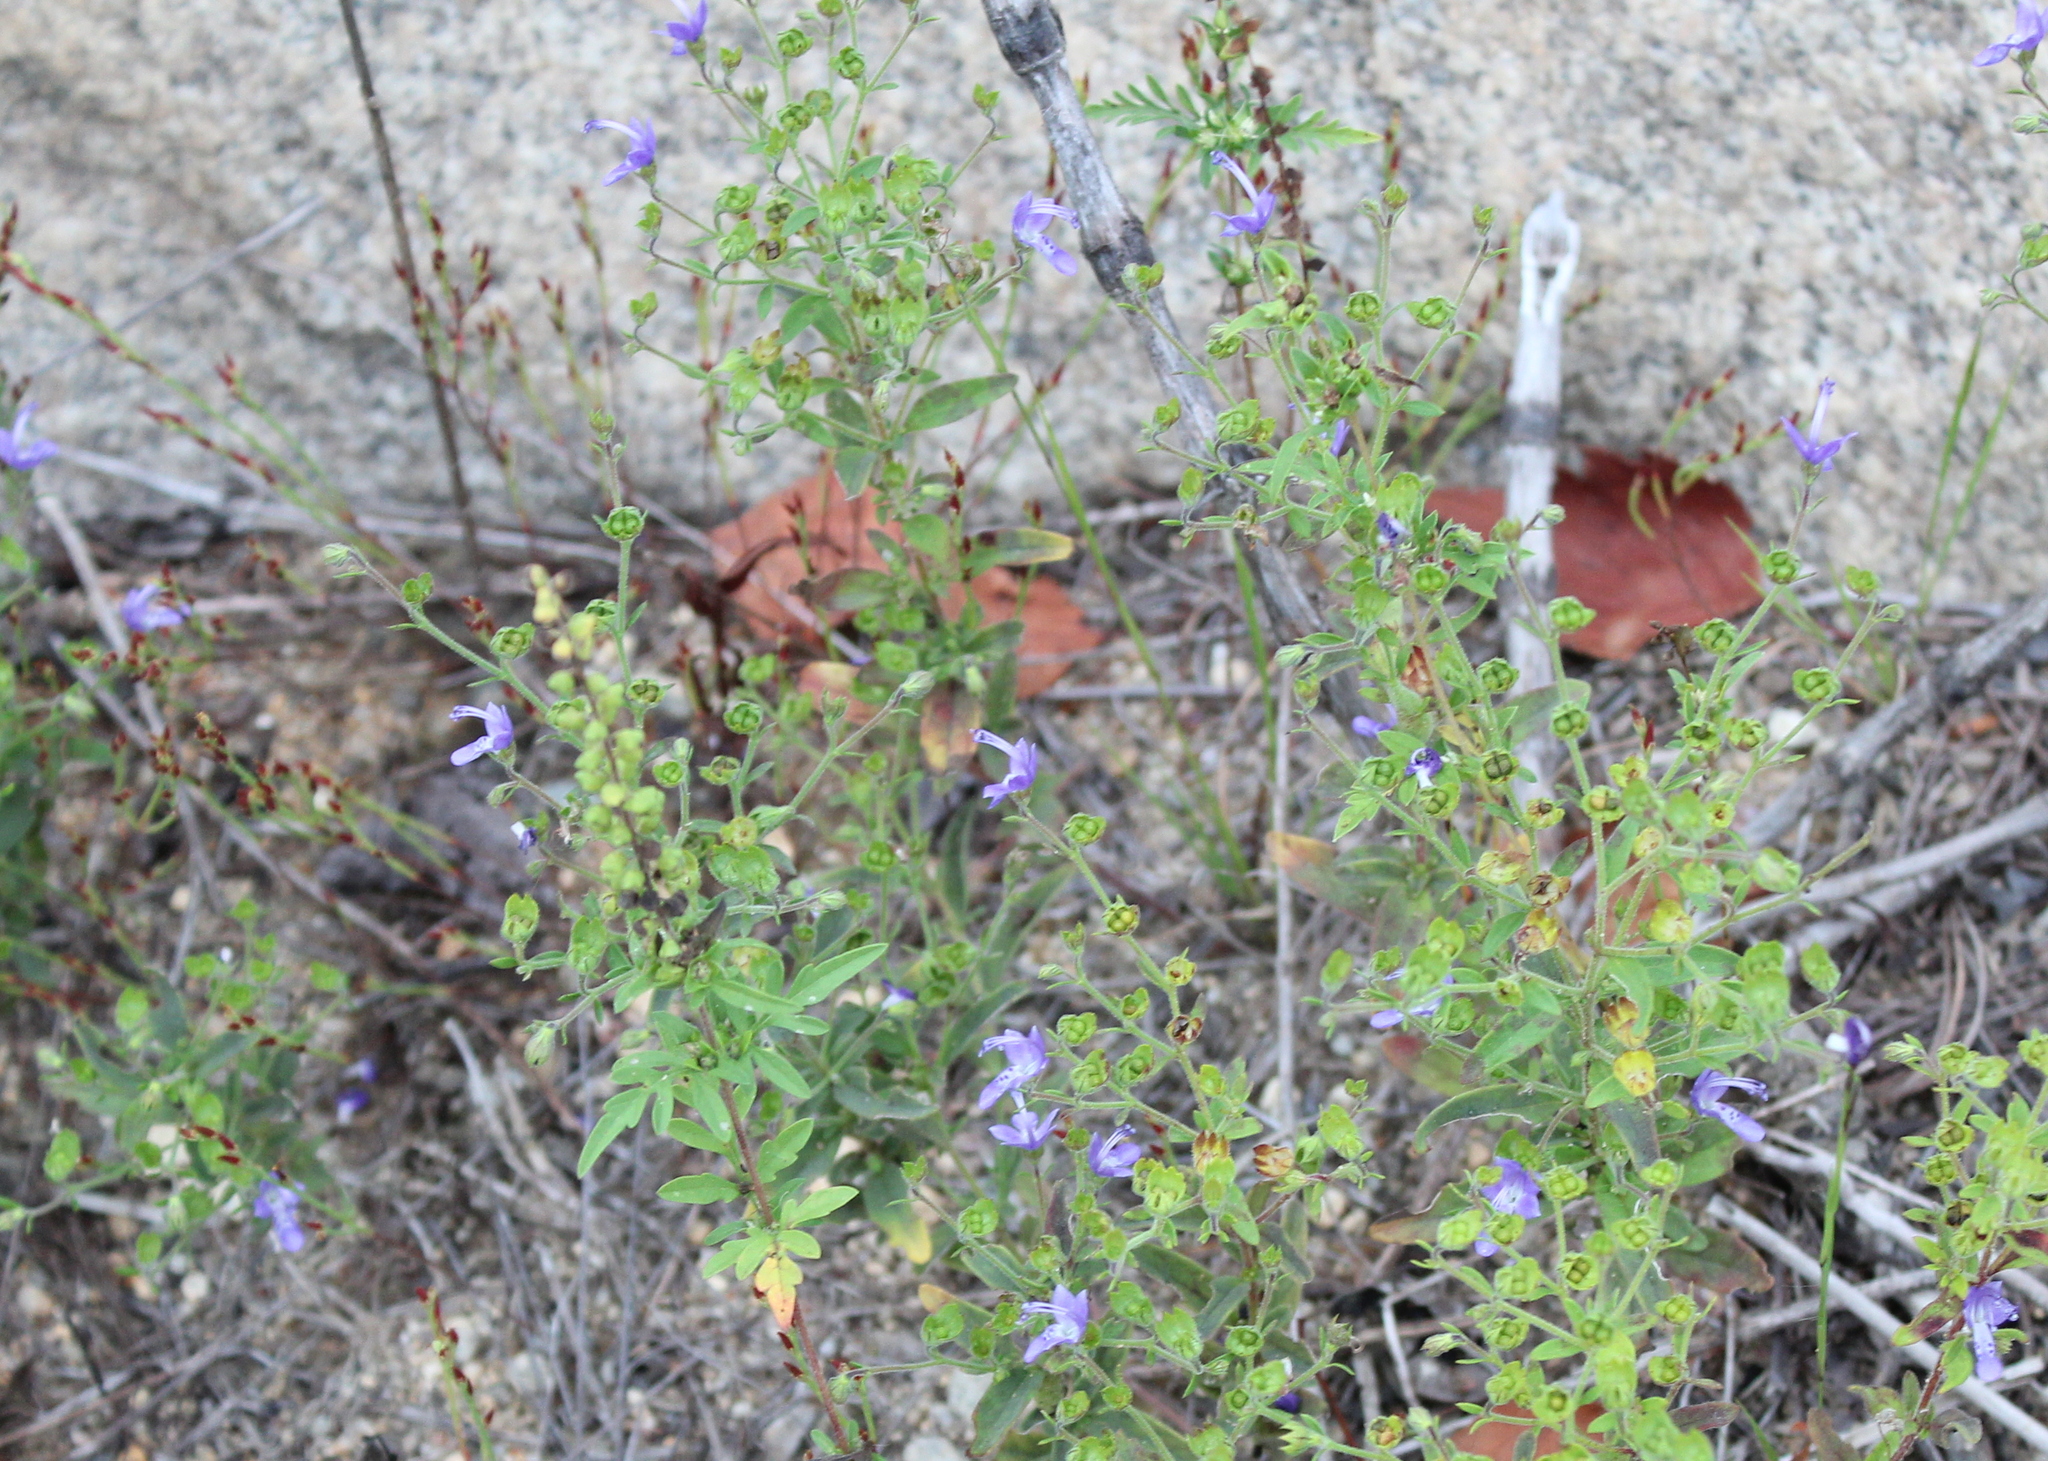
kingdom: Plantae
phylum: Tracheophyta
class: Magnoliopsida
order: Lamiales
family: Lamiaceae
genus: Trichostema
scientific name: Trichostema dichotomum
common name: Bastard pennyroyal
